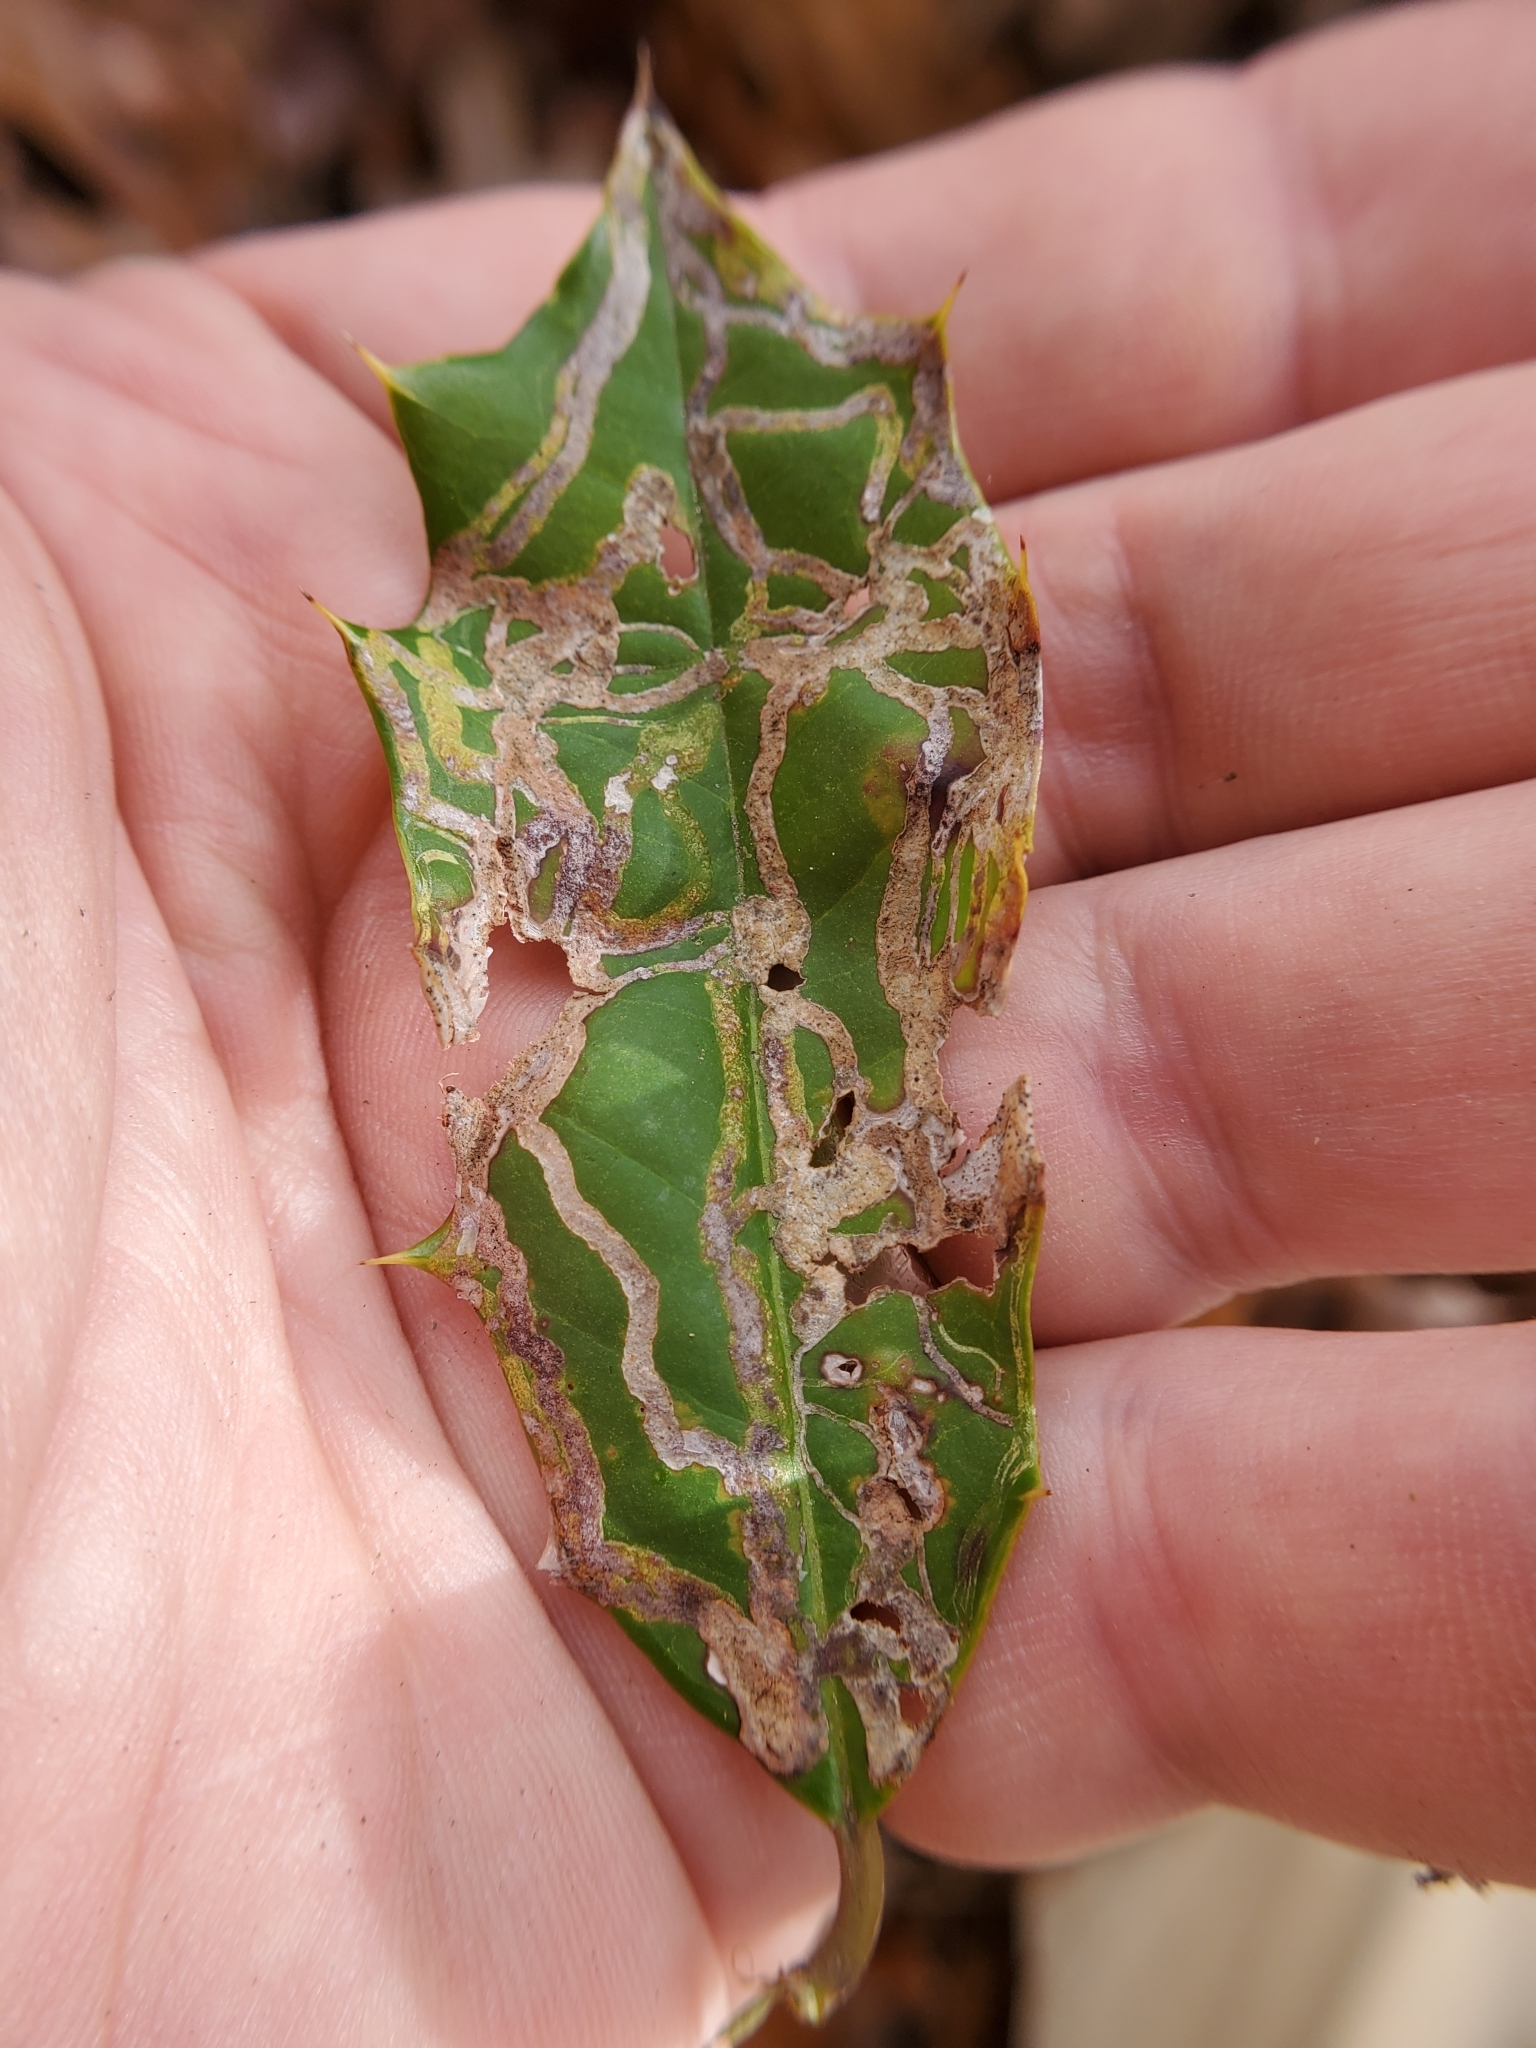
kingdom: Animalia
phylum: Arthropoda
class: Insecta
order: Diptera
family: Agromyzidae
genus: Phytomyza
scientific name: Phytomyza opacae
